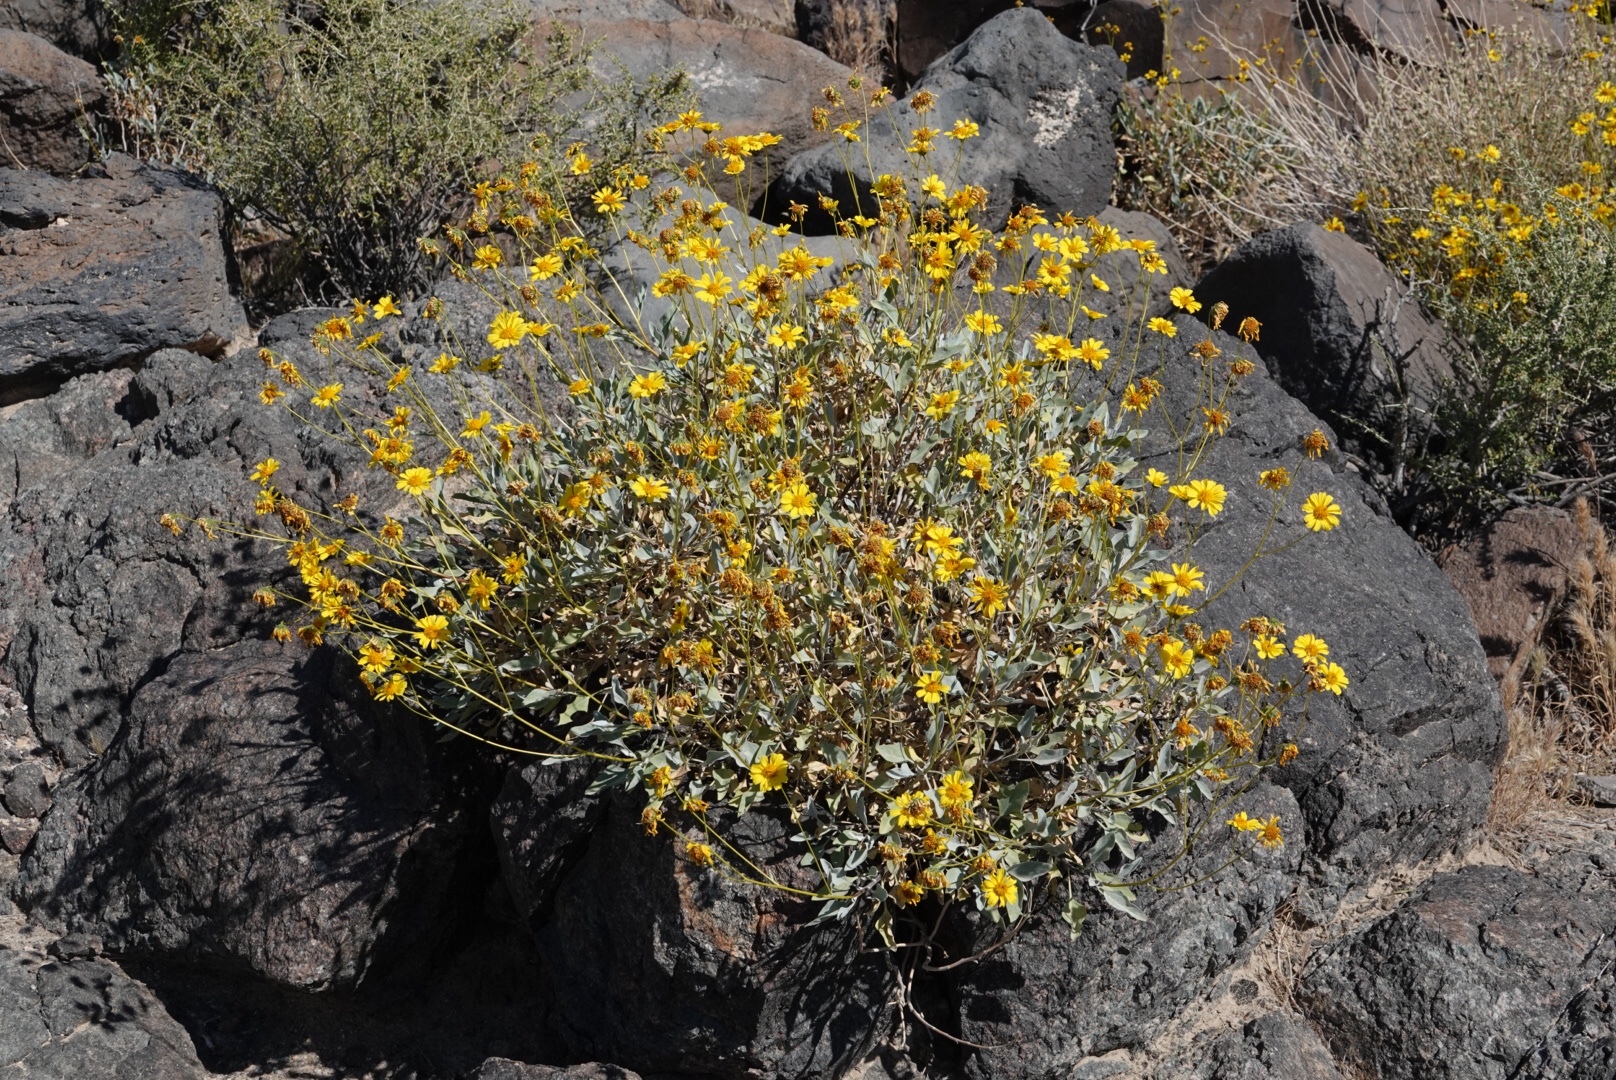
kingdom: Plantae
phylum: Tracheophyta
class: Magnoliopsida
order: Asterales
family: Asteraceae
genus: Encelia
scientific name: Encelia farinosa
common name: Brittlebush
